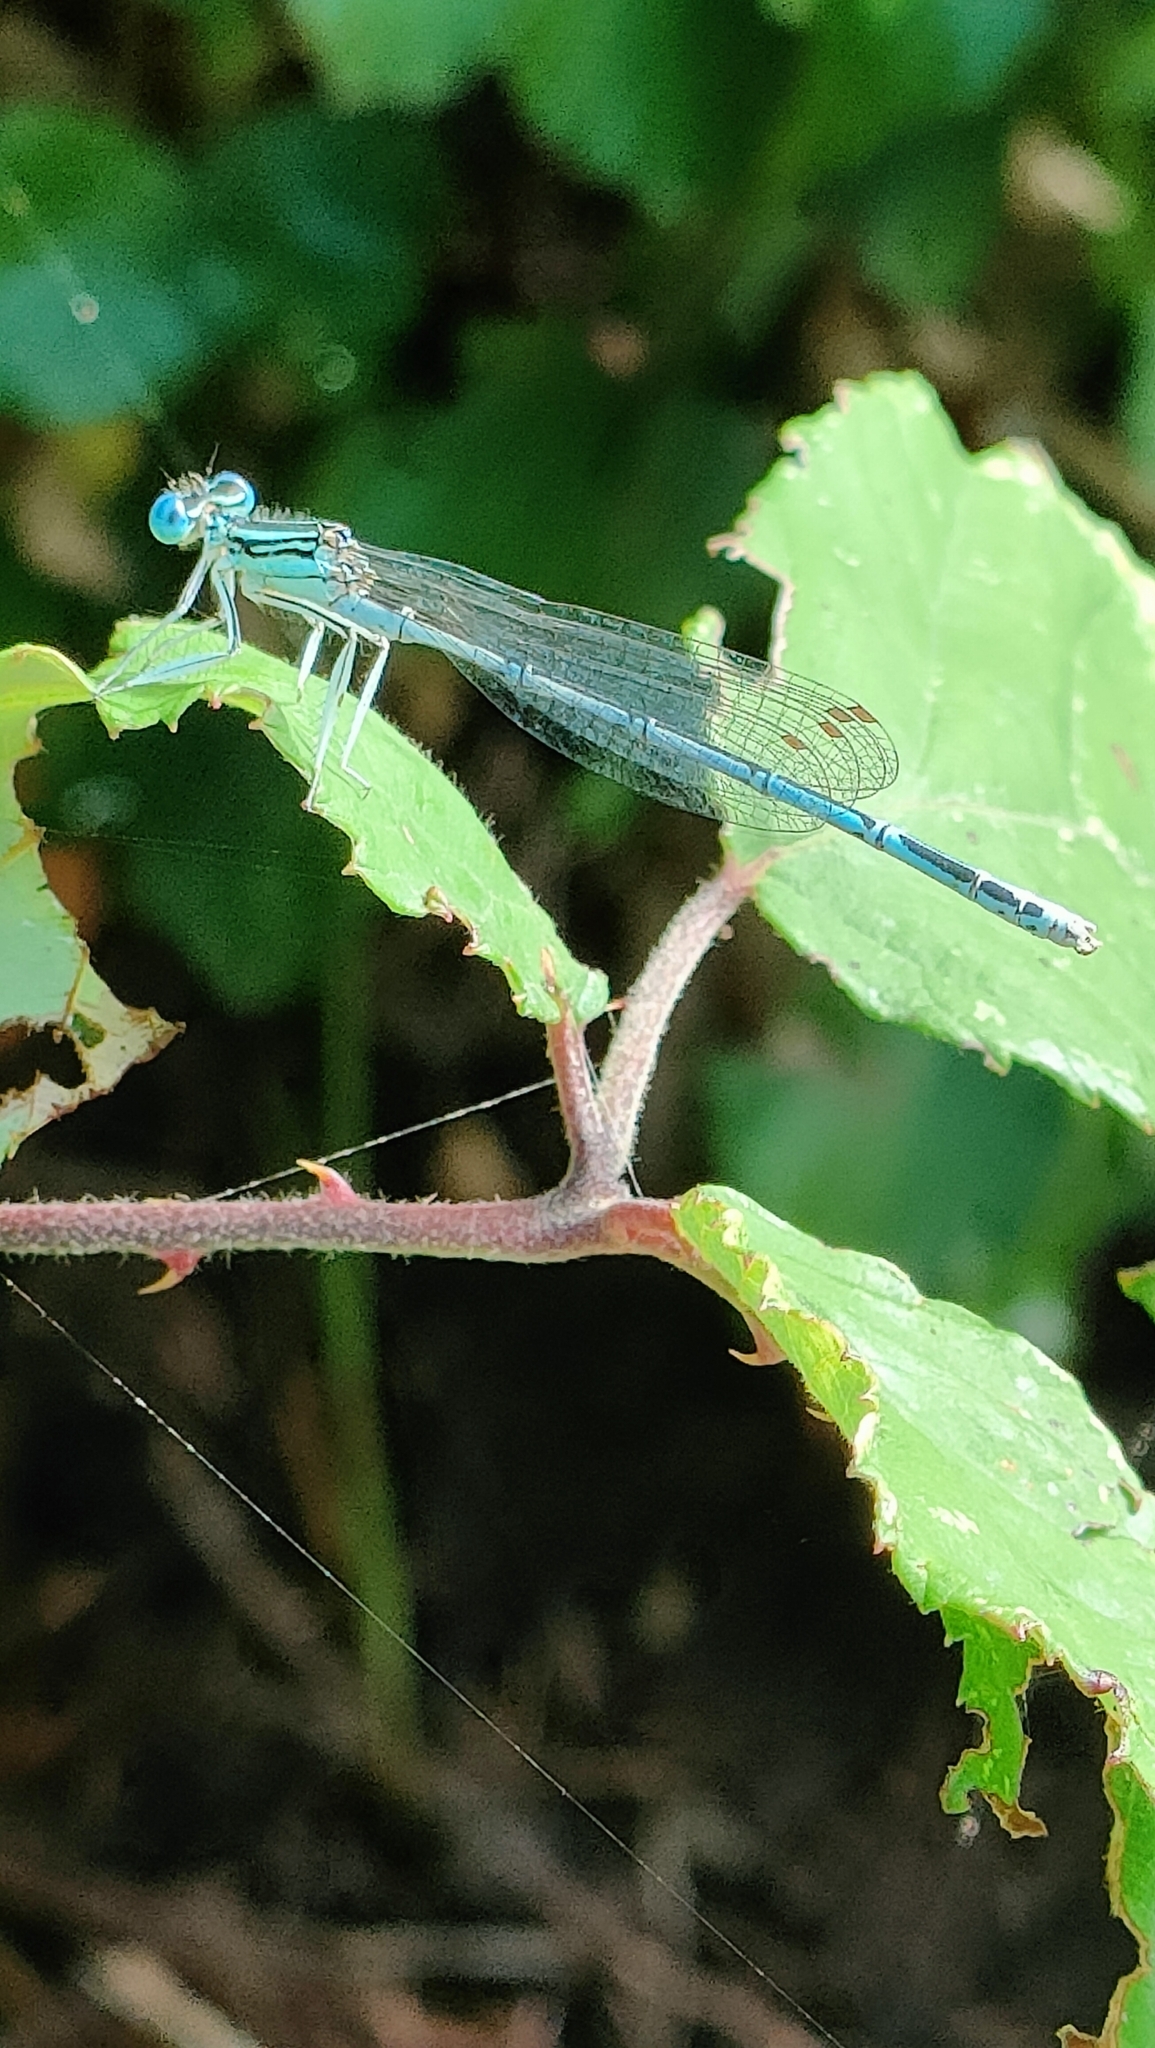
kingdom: Animalia
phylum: Arthropoda
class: Insecta
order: Odonata
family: Platycnemididae
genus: Platycnemis
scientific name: Platycnemis pennipes
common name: White-legged damselfly
